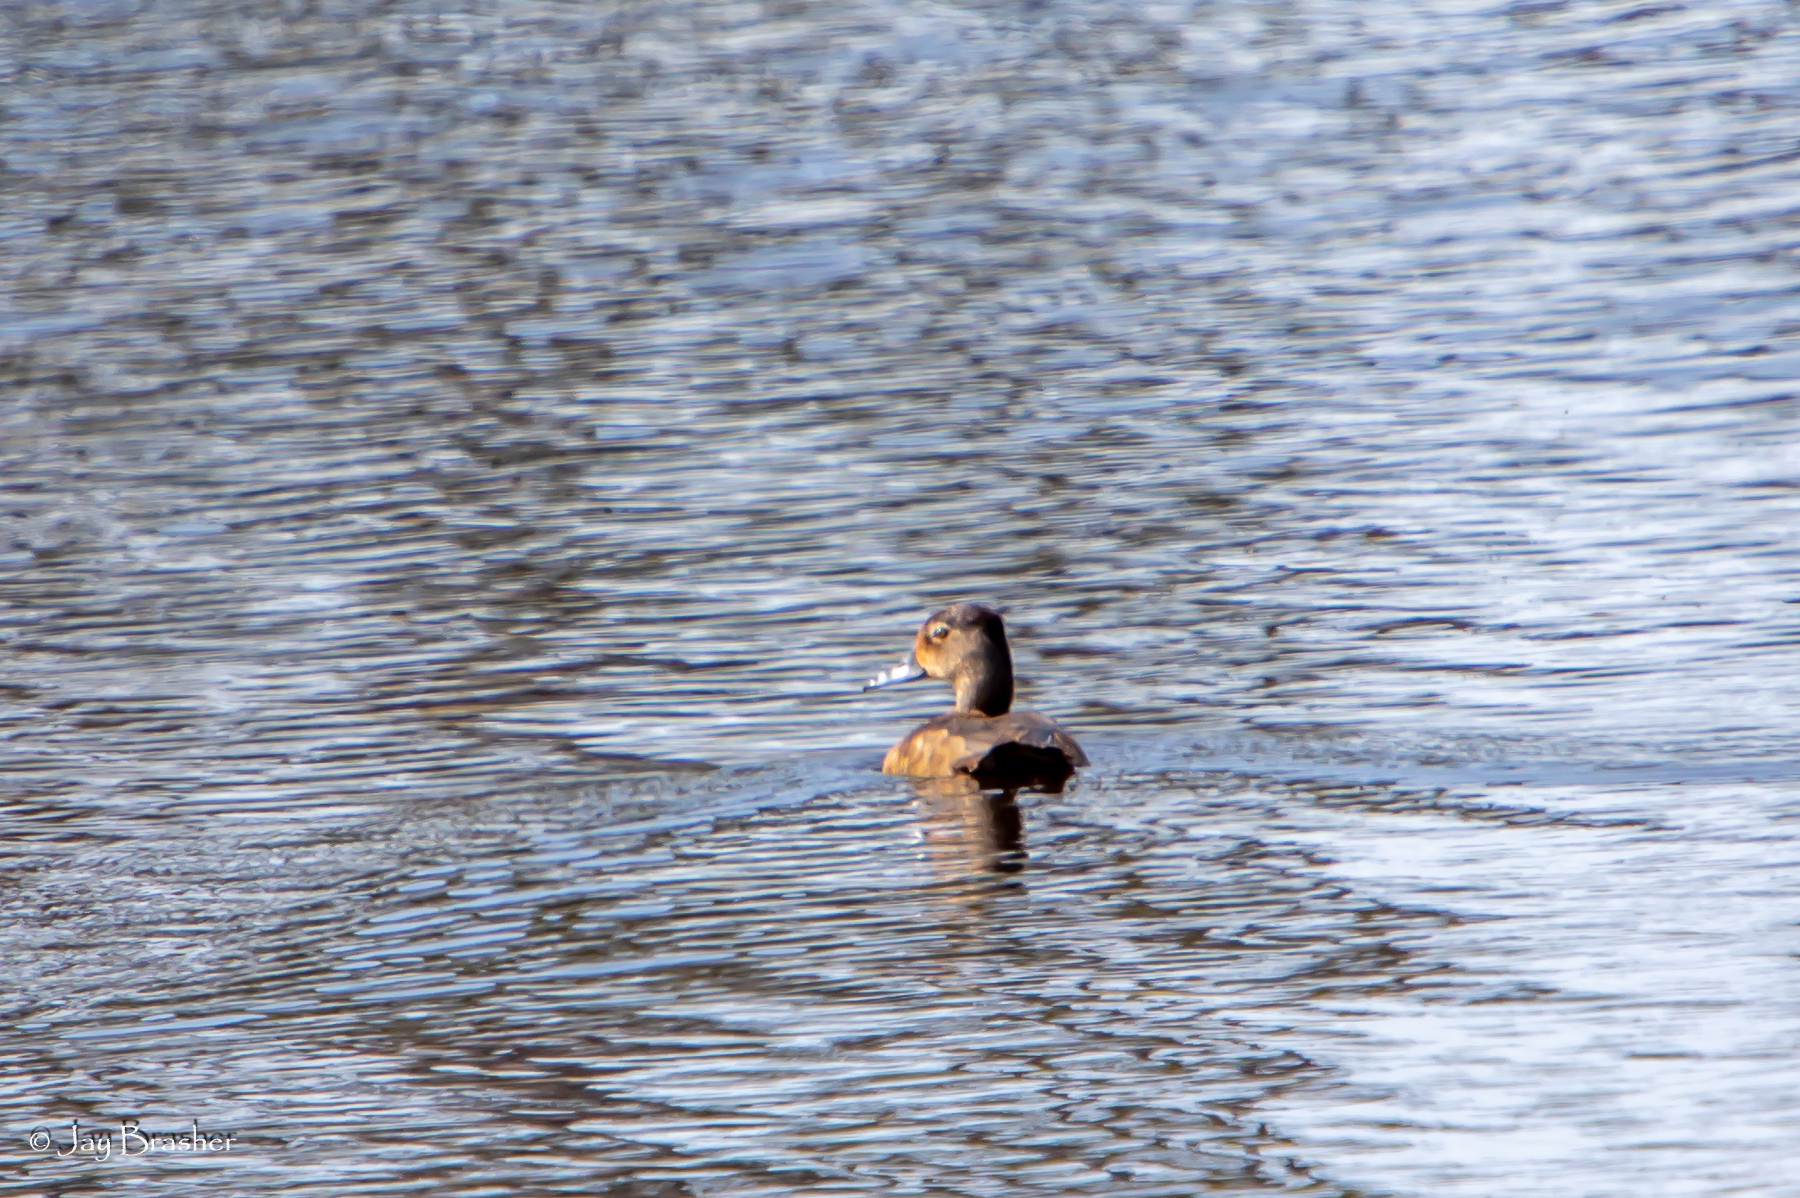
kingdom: Animalia
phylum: Chordata
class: Aves
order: Anseriformes
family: Anatidae
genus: Aythya
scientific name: Aythya collaris
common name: Ring-necked duck
